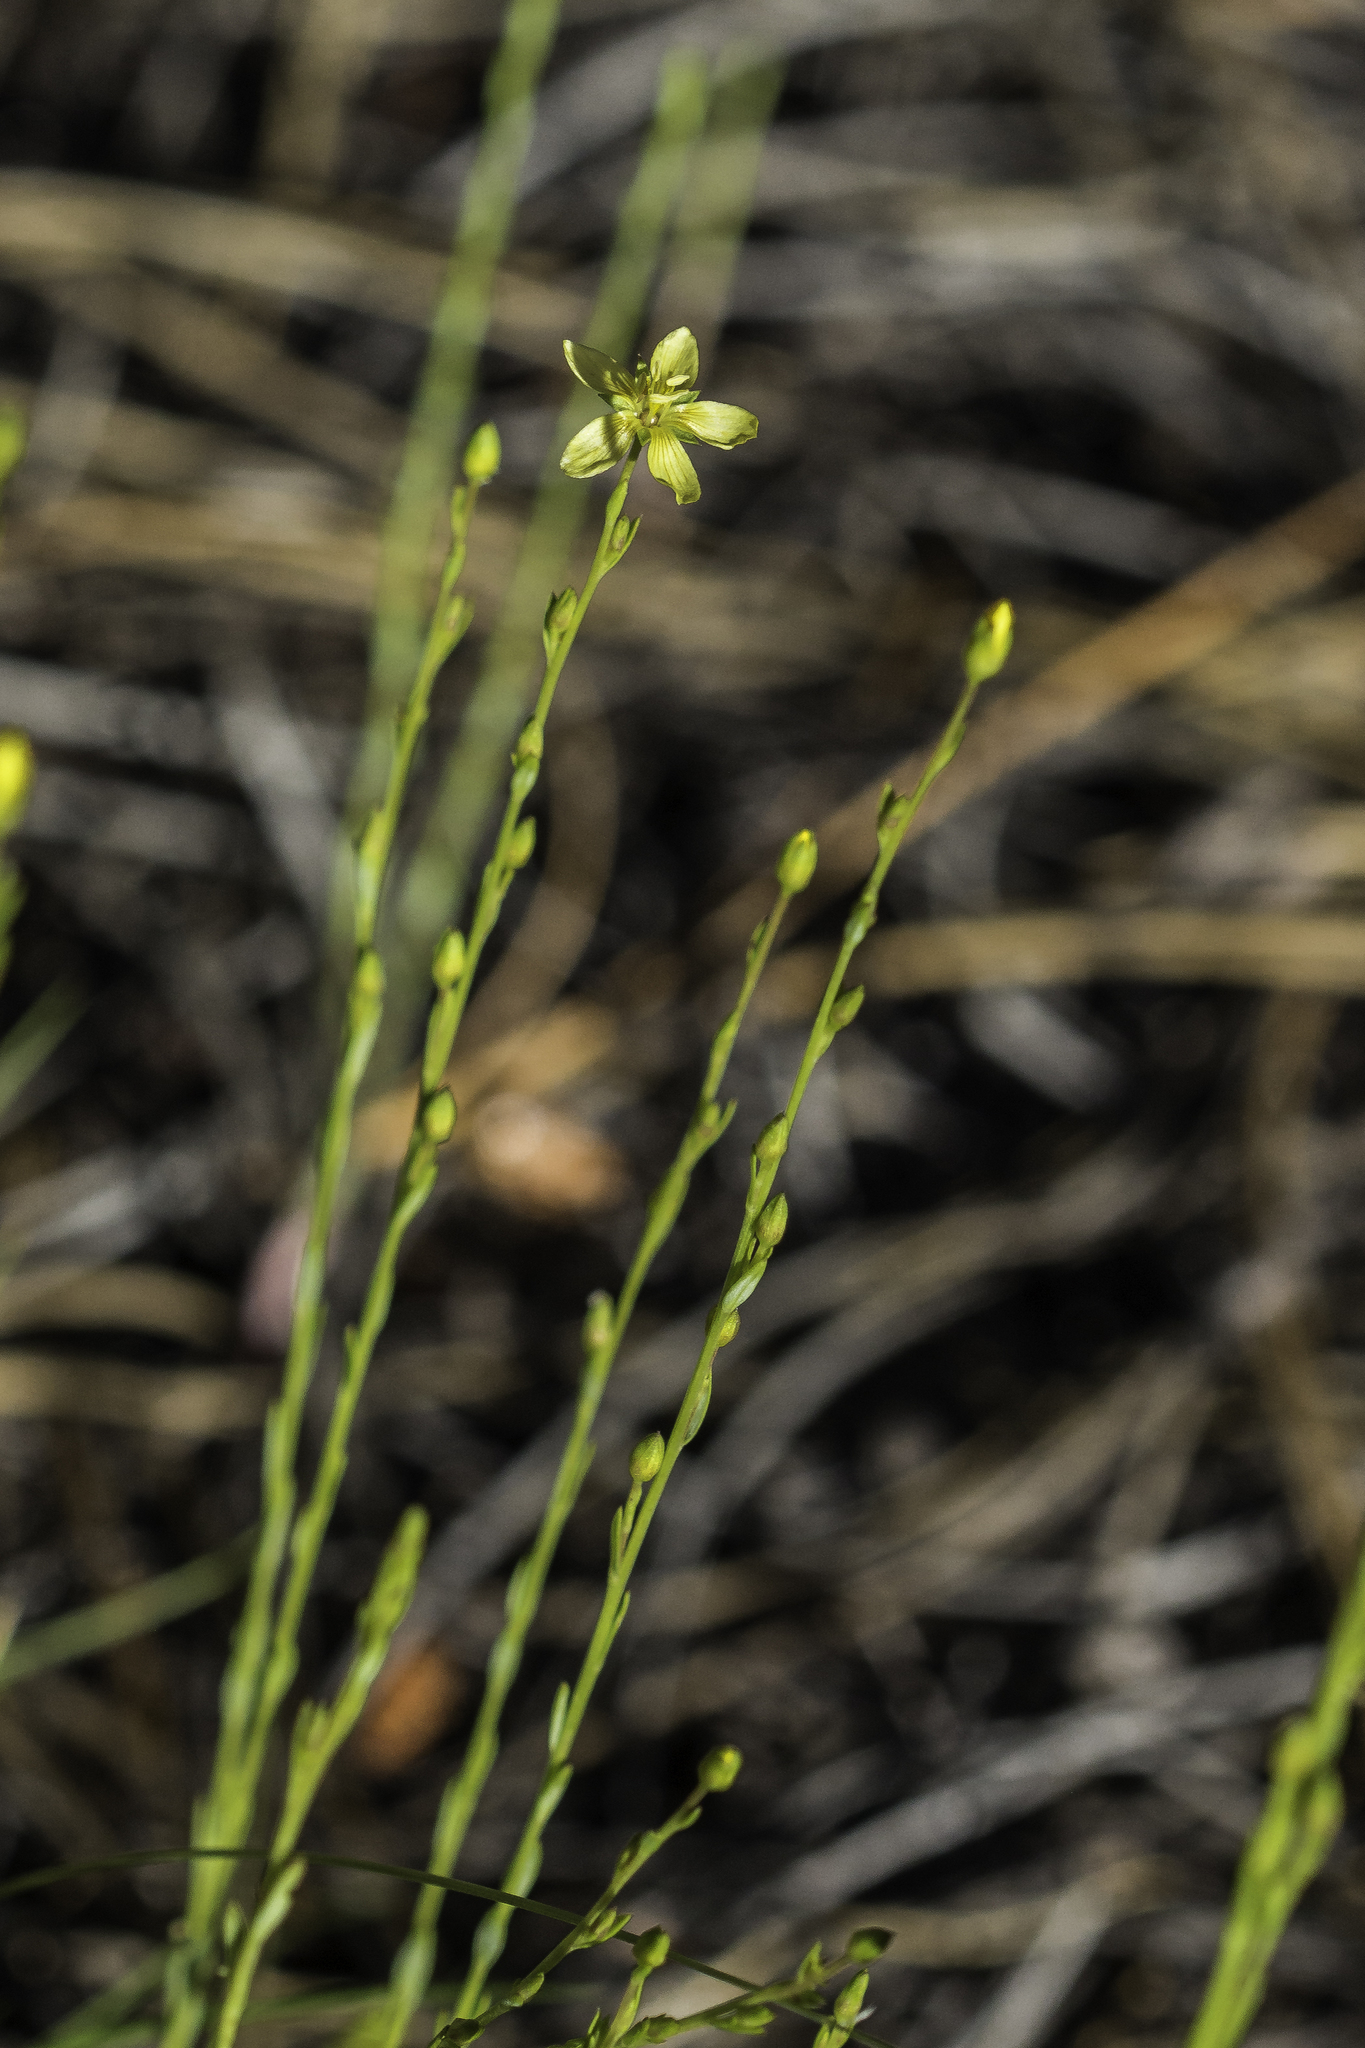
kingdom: Plantae
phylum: Tracheophyta
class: Magnoliopsida
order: Malpighiales
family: Linaceae
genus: Linum
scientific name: Linum neomexicanum
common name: New mexico yellow flax
